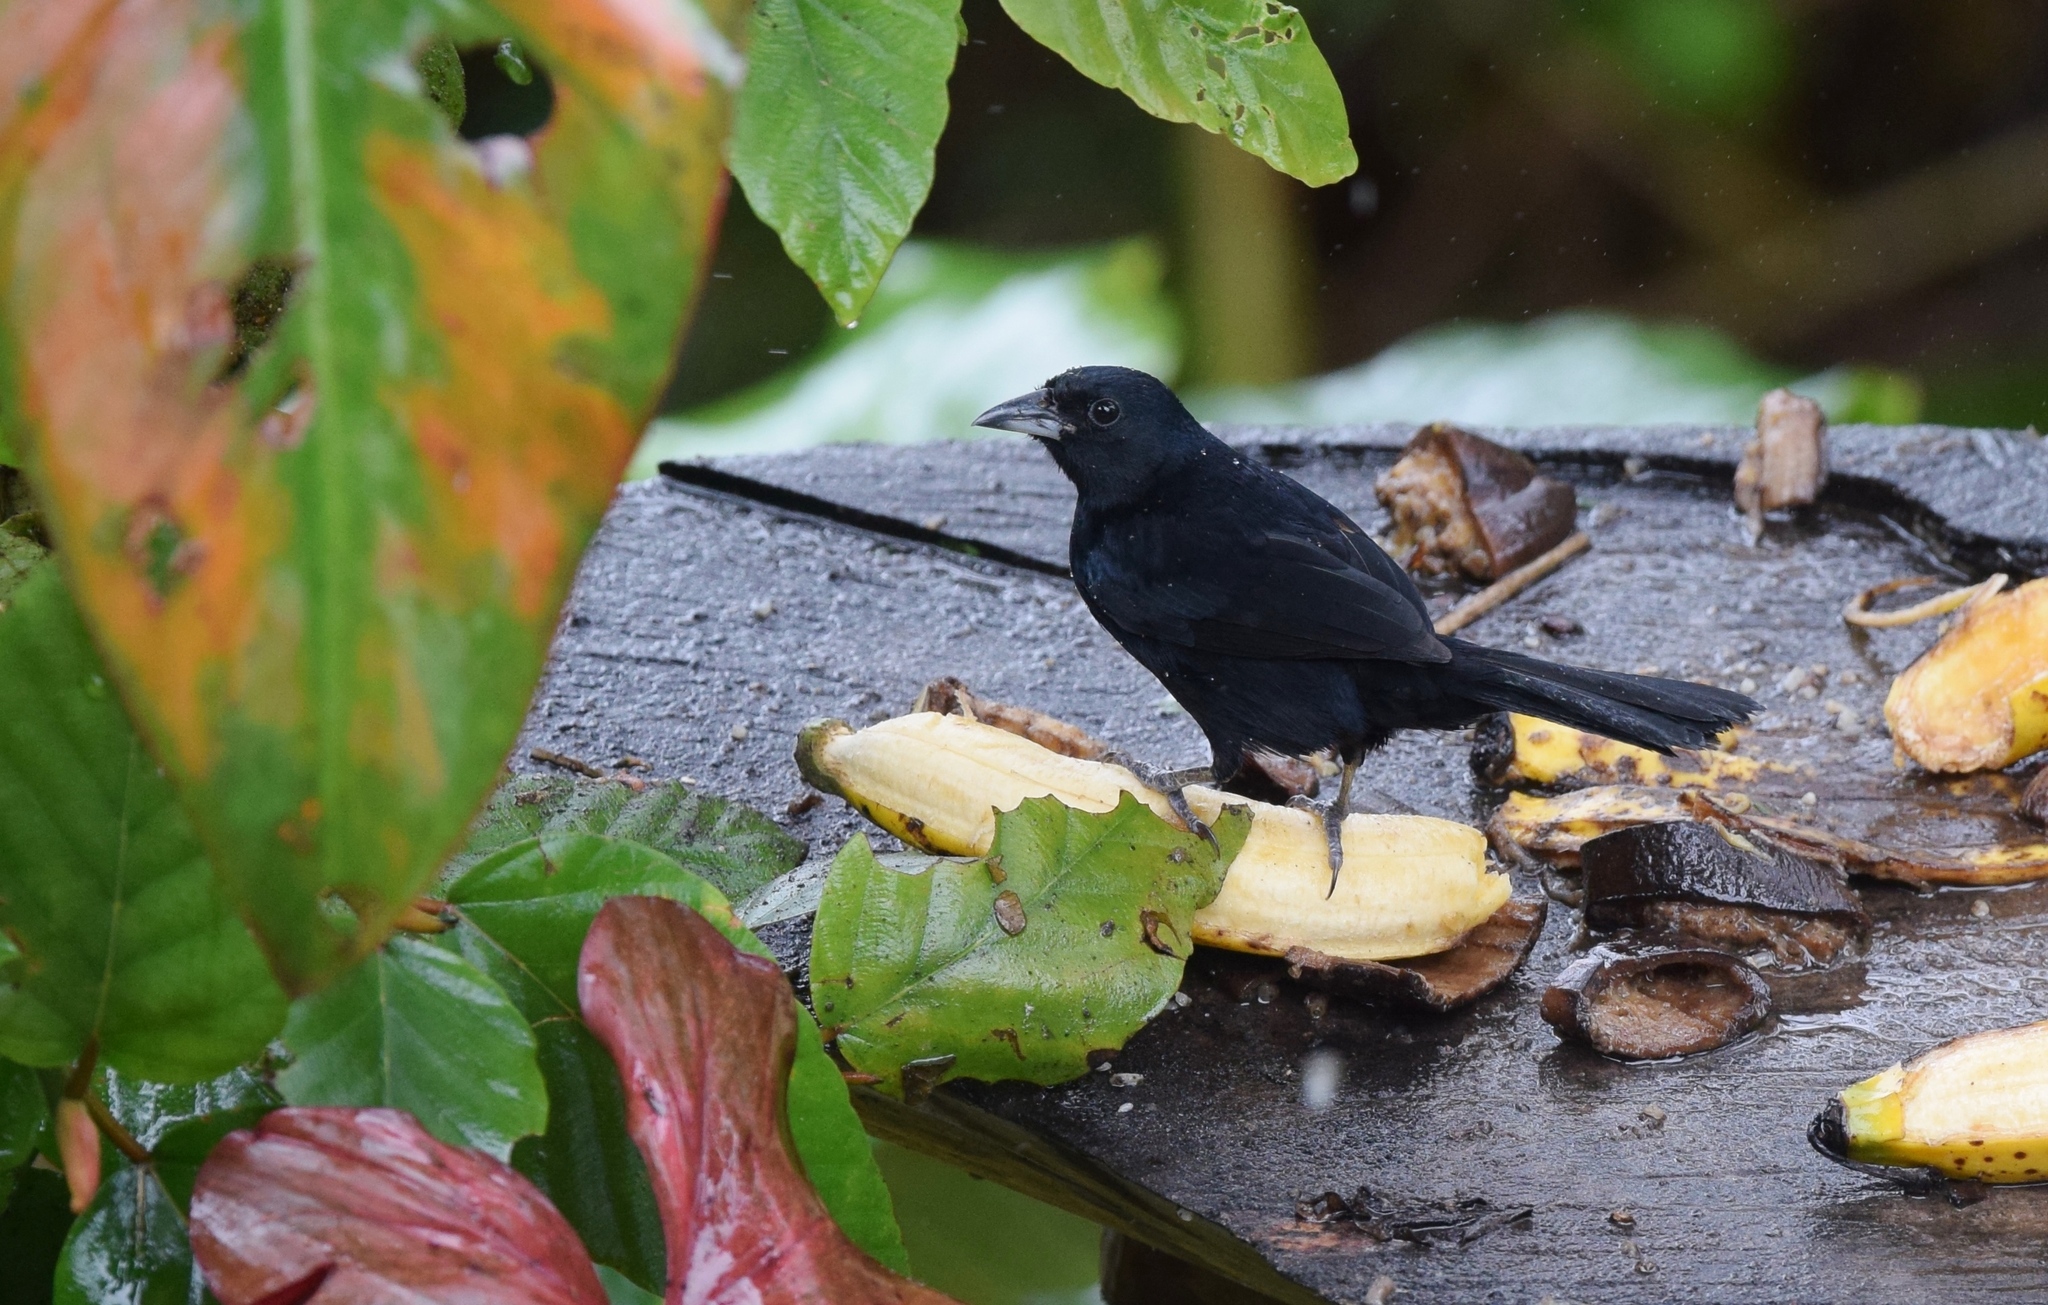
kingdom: Animalia
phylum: Chordata
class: Aves
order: Passeriformes
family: Thraupidae
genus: Tachyphonus
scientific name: Tachyphonus rufus
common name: White-lined tanager
